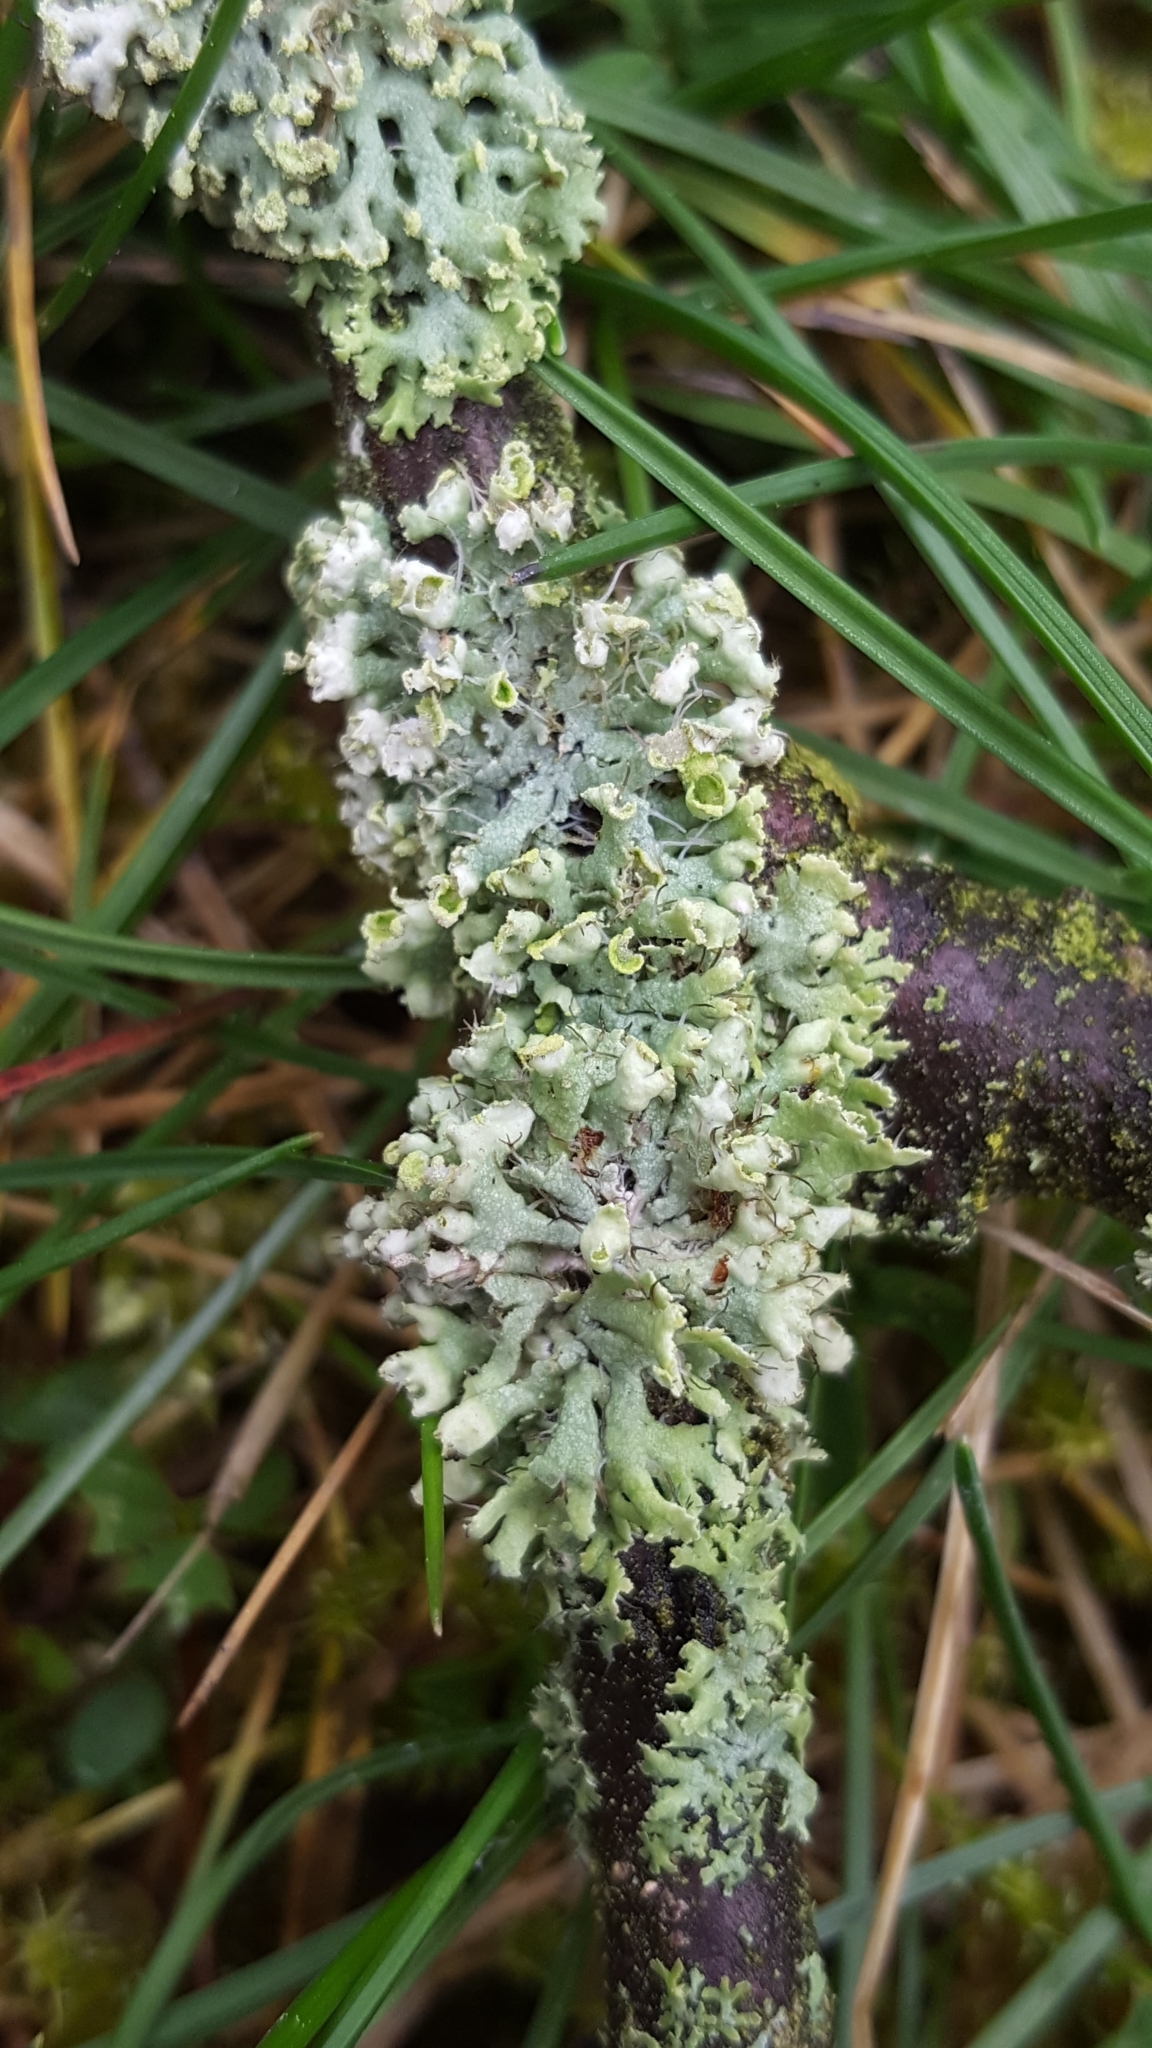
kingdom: Fungi
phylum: Ascomycota
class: Lecanoromycetes
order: Caliciales
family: Physciaceae
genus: Physcia
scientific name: Physcia adscendens
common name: Hooded rosette lichen
